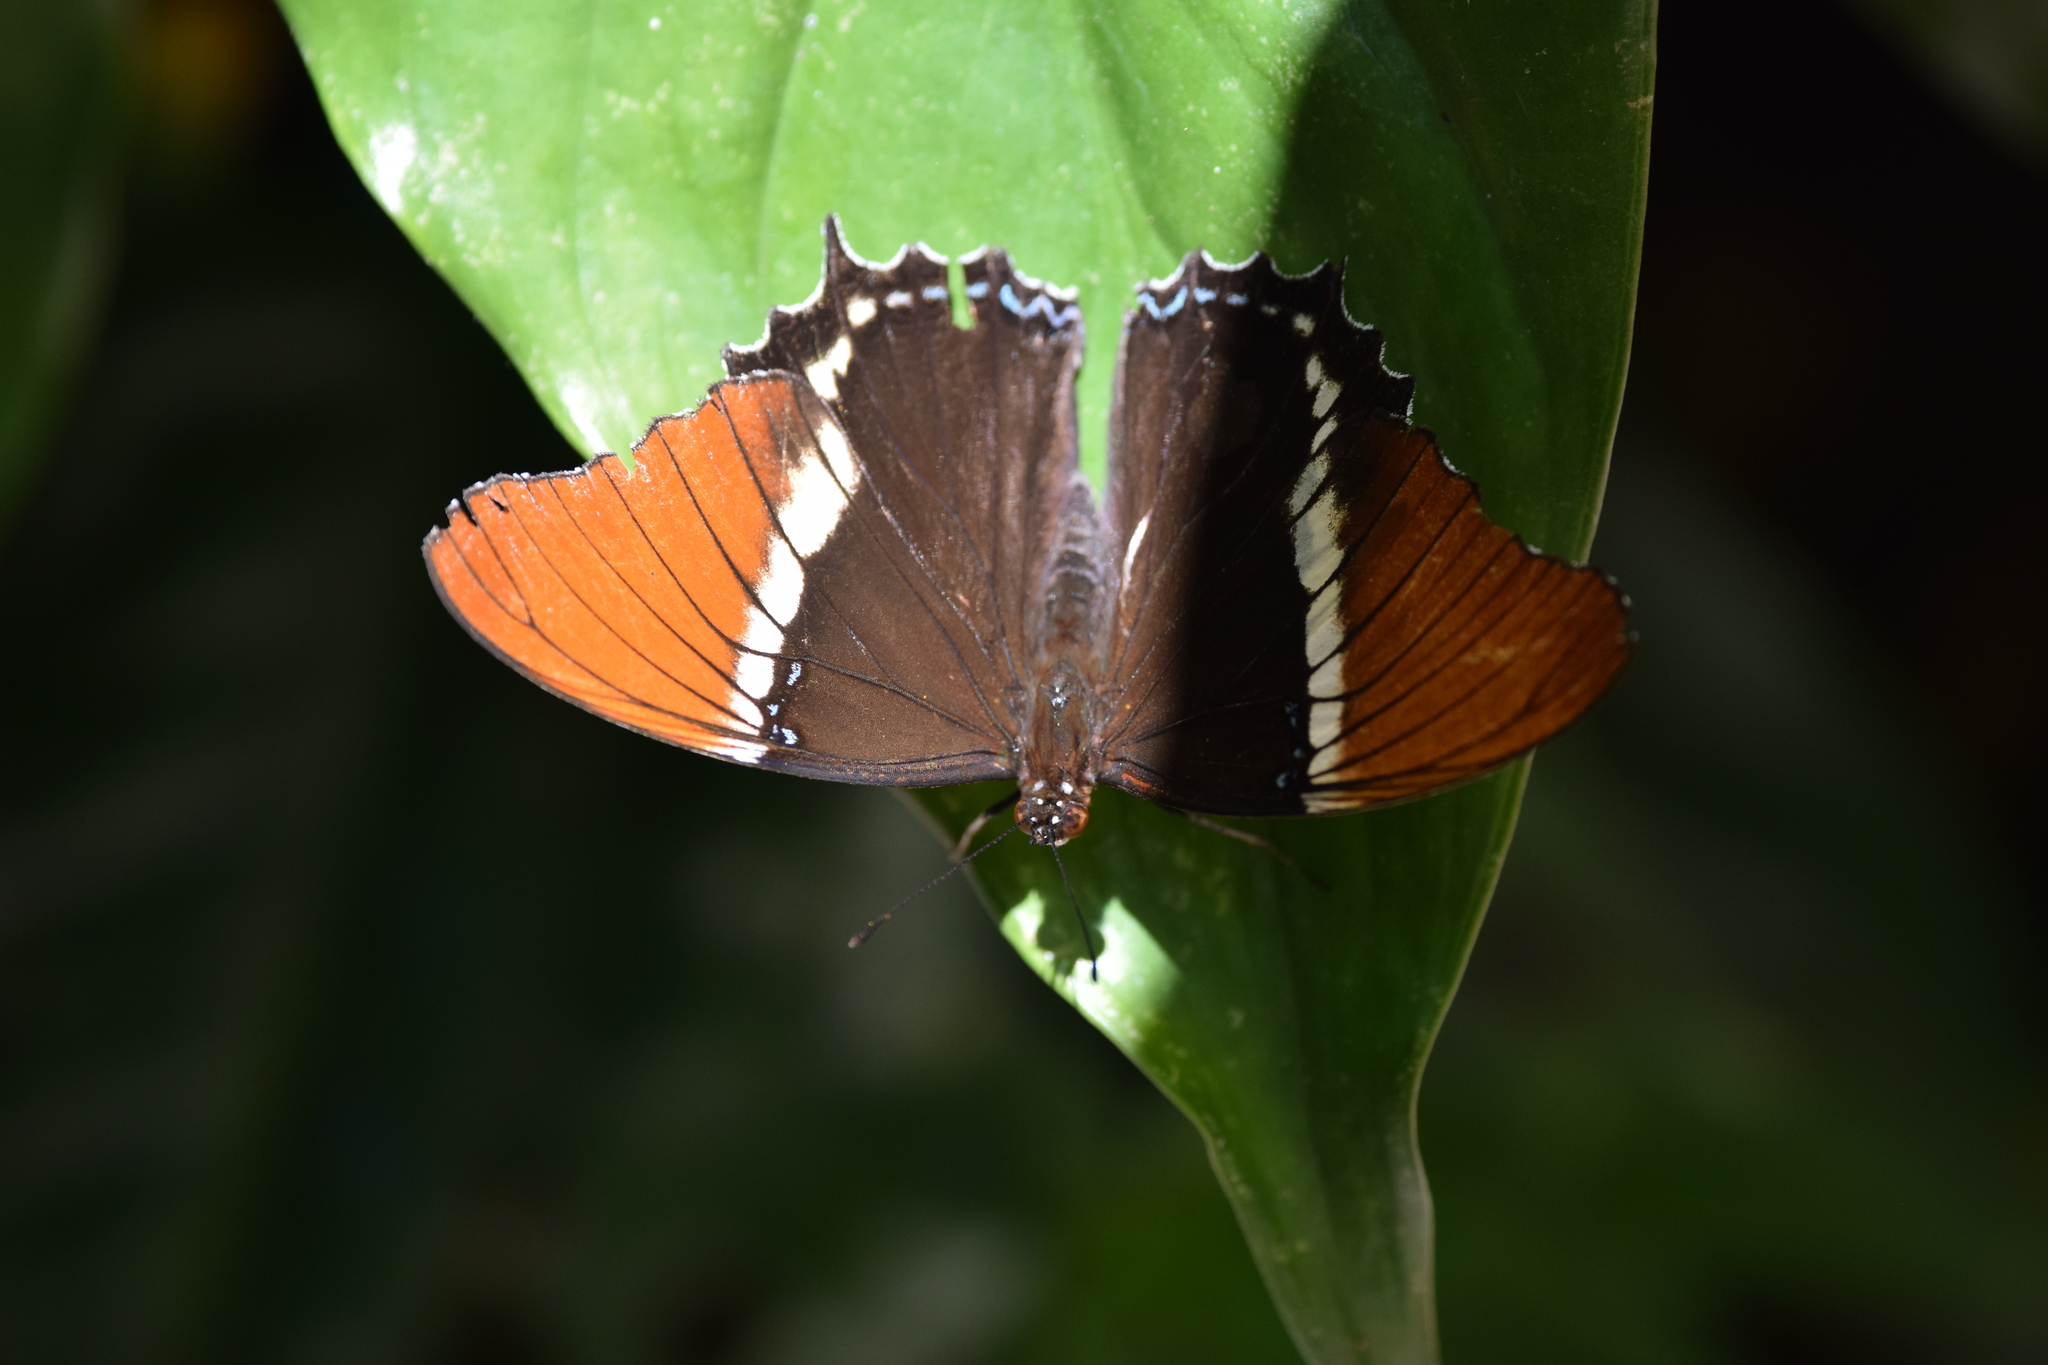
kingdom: Animalia
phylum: Arthropoda
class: Insecta
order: Lepidoptera
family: Nymphalidae
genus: Siproeta
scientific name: Siproeta epaphus
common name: Rusty-tipped page
